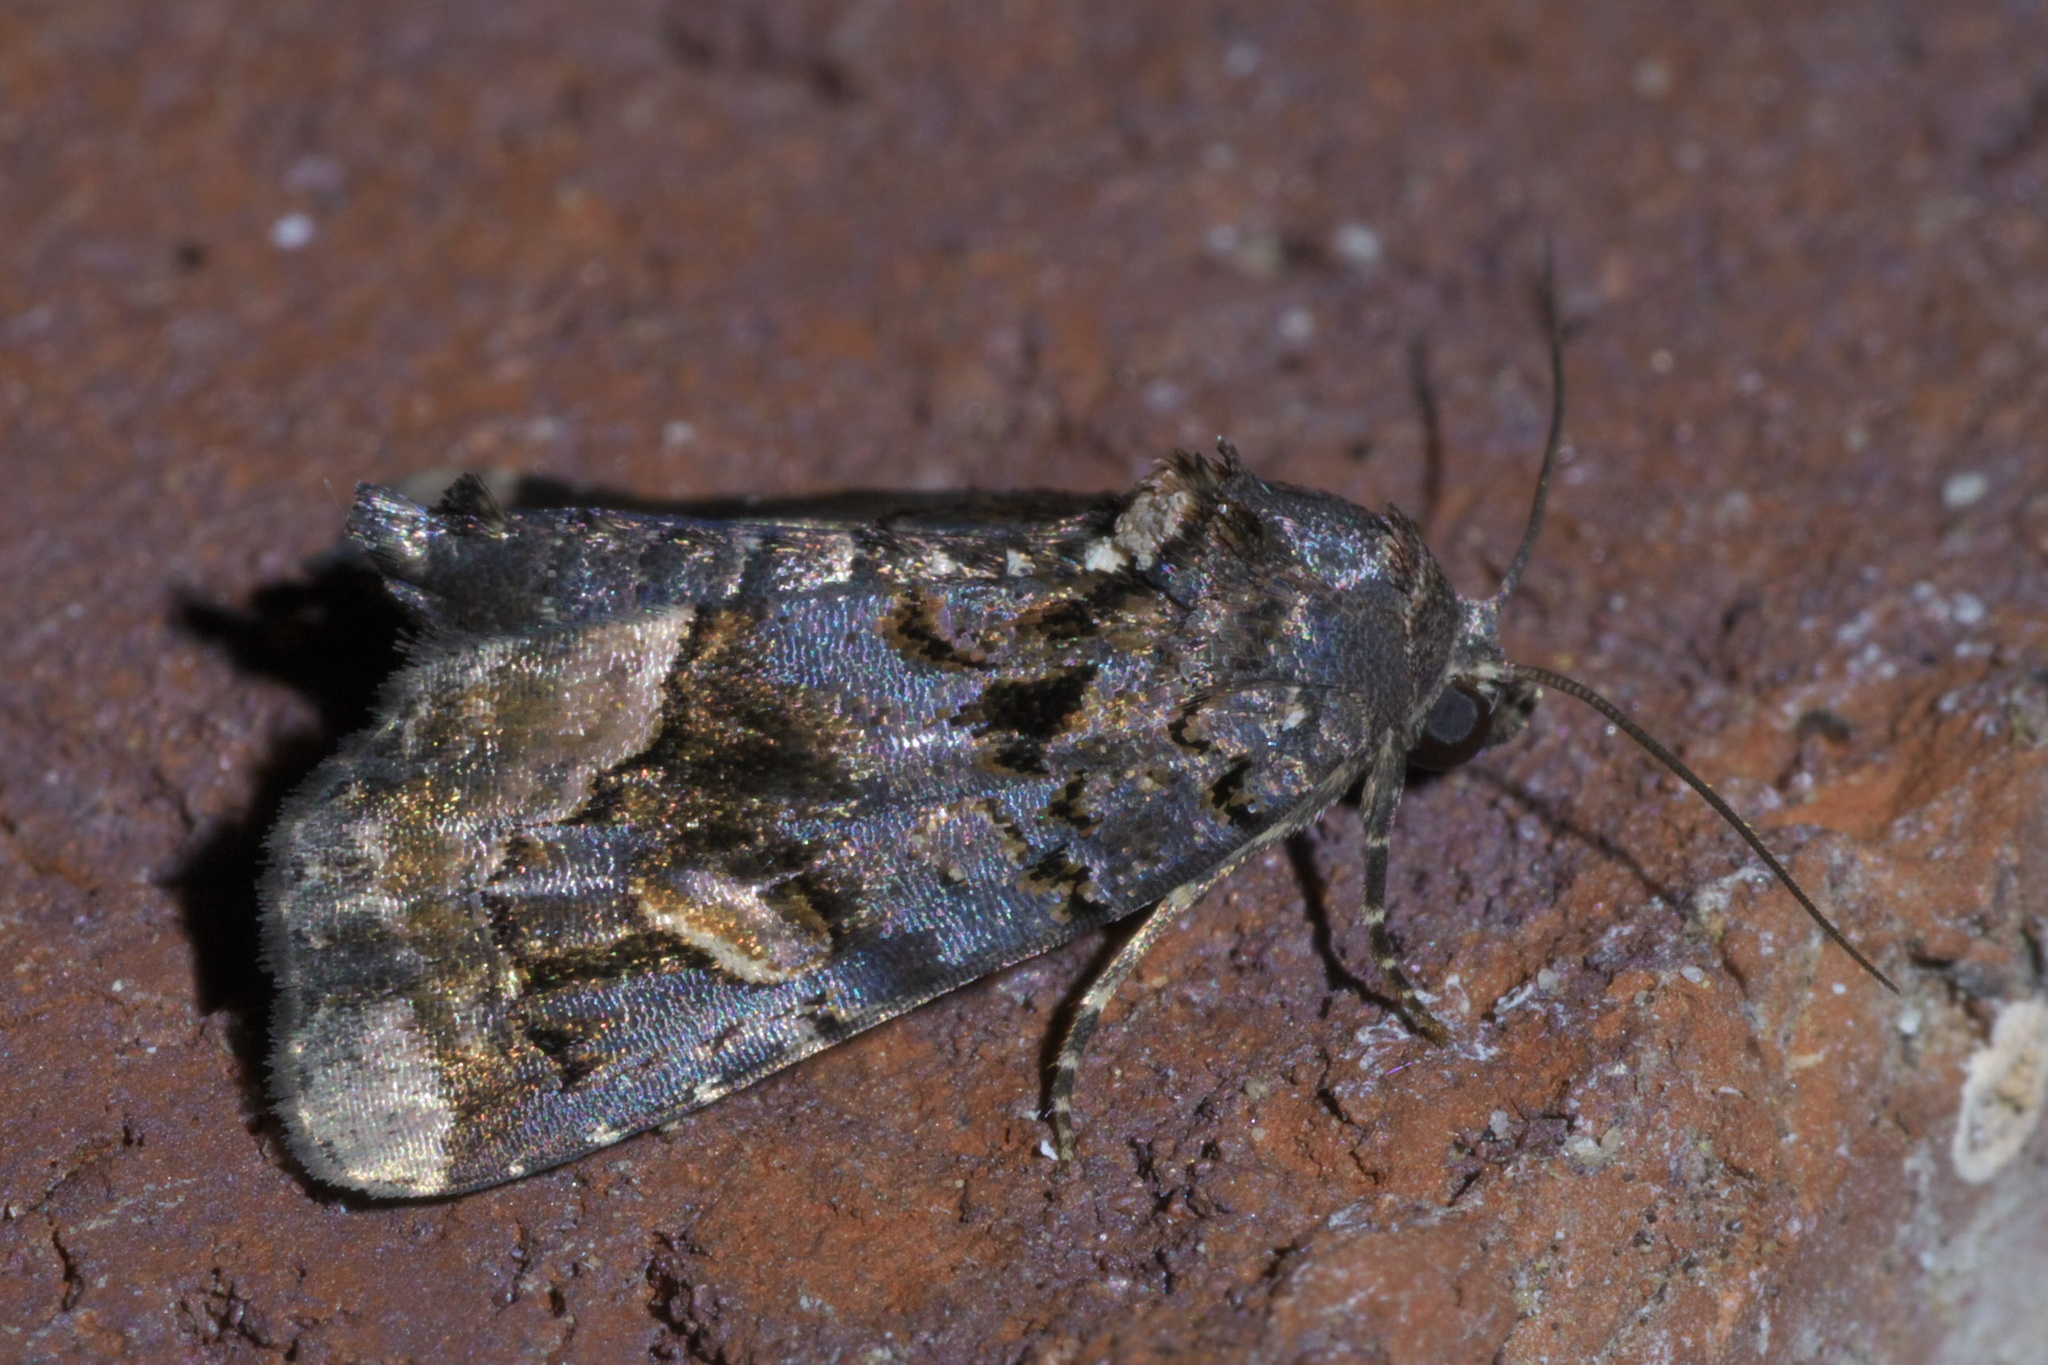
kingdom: Animalia
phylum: Arthropoda
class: Insecta
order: Lepidoptera
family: Noctuidae
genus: Homophoberia
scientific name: Homophoberia apicosa
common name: Black wedge-spot
